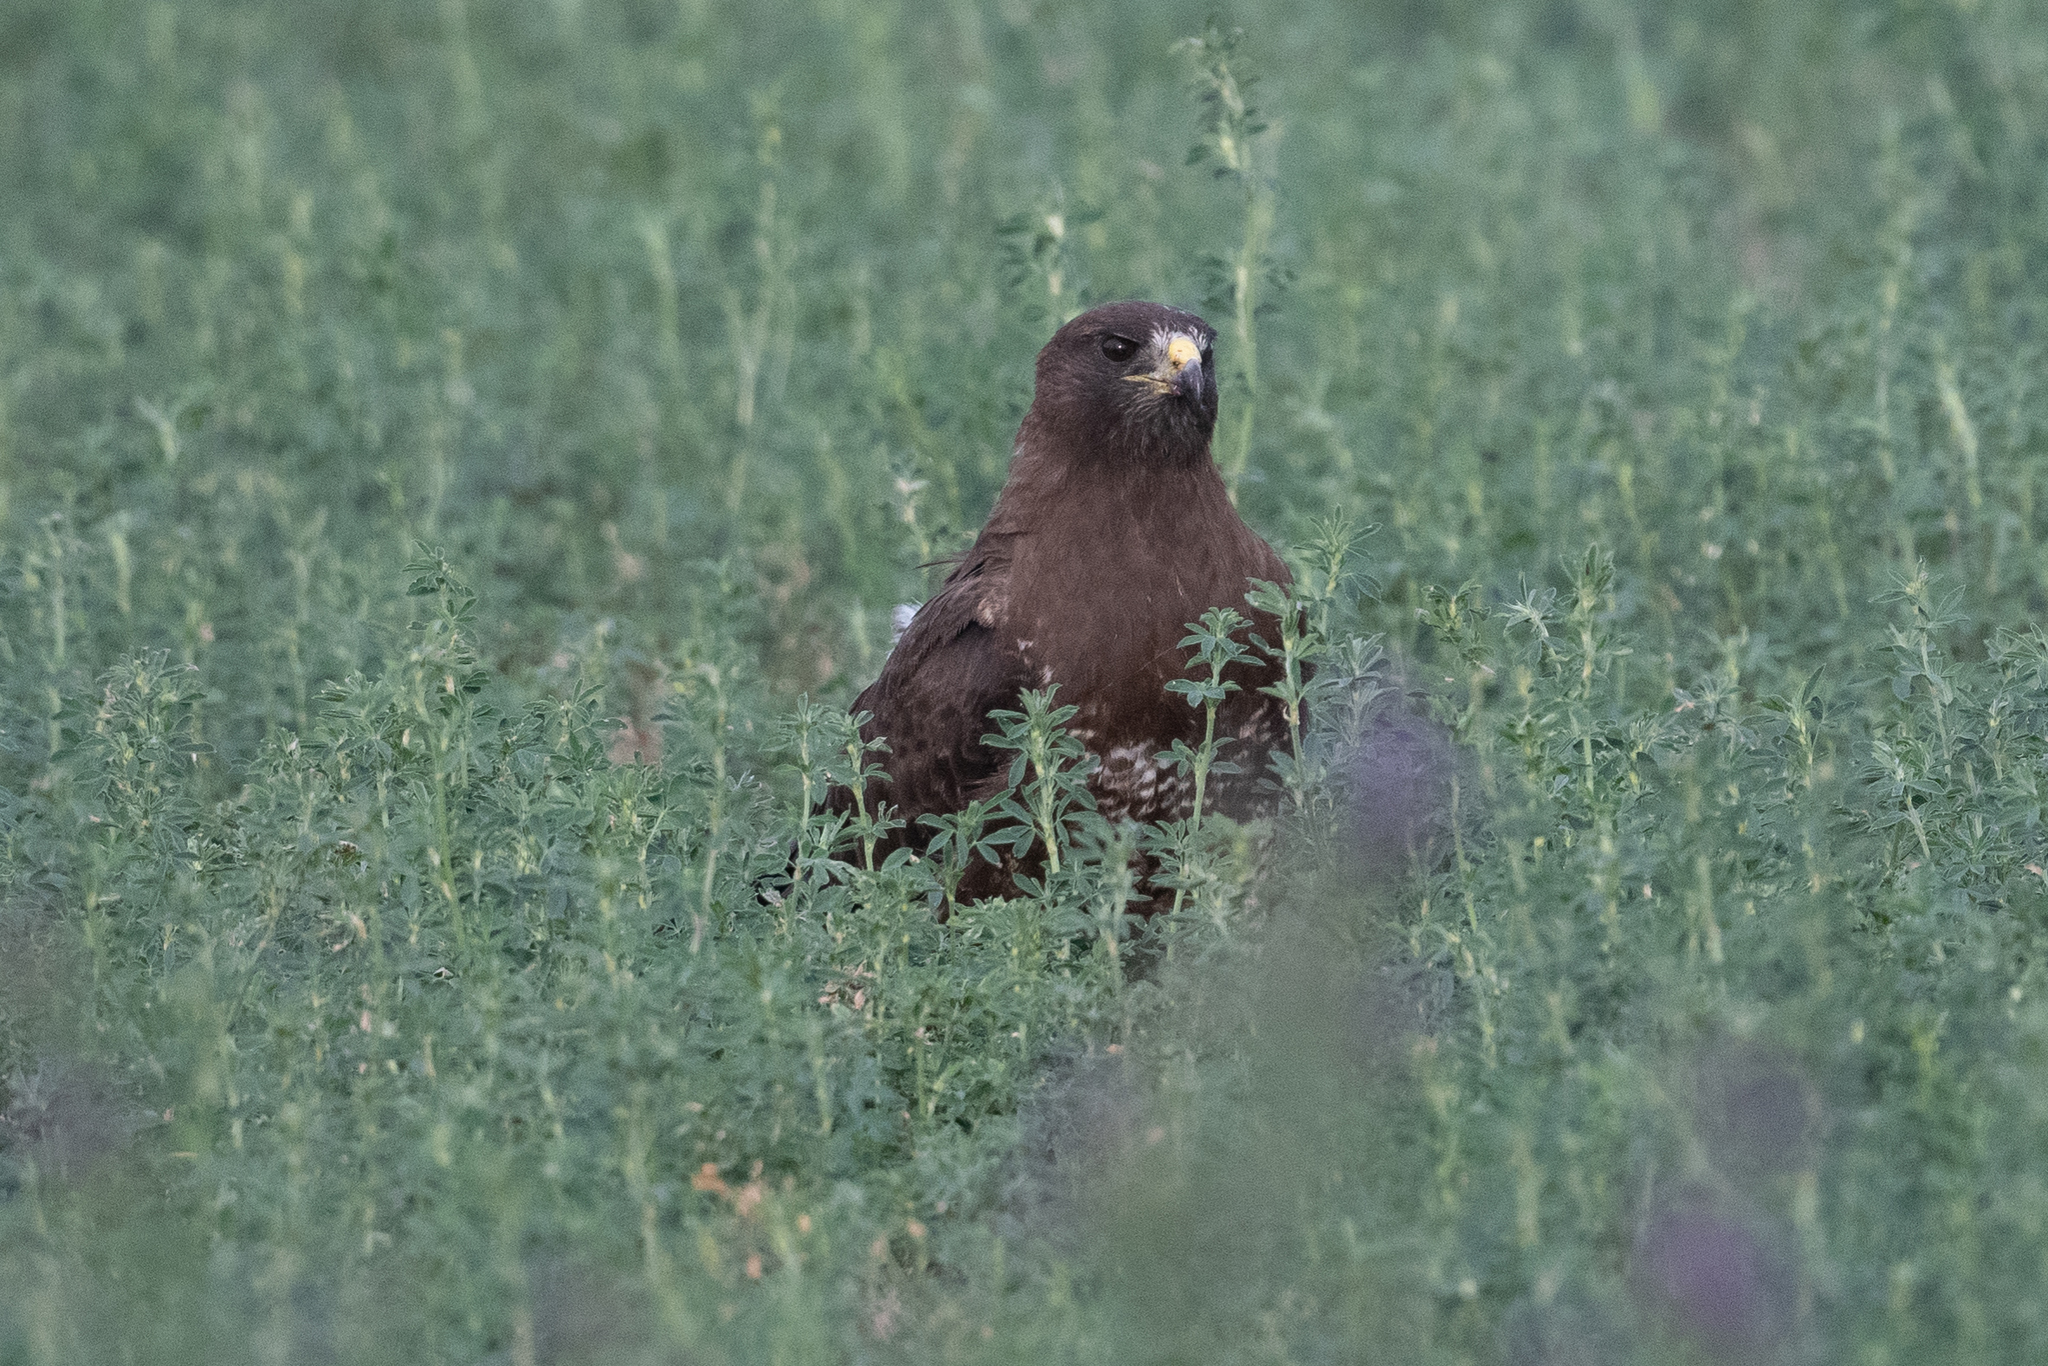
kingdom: Animalia
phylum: Chordata
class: Aves
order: Accipitriformes
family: Accipitridae
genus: Buteo
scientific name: Buteo swainsoni
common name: Swainson's hawk
